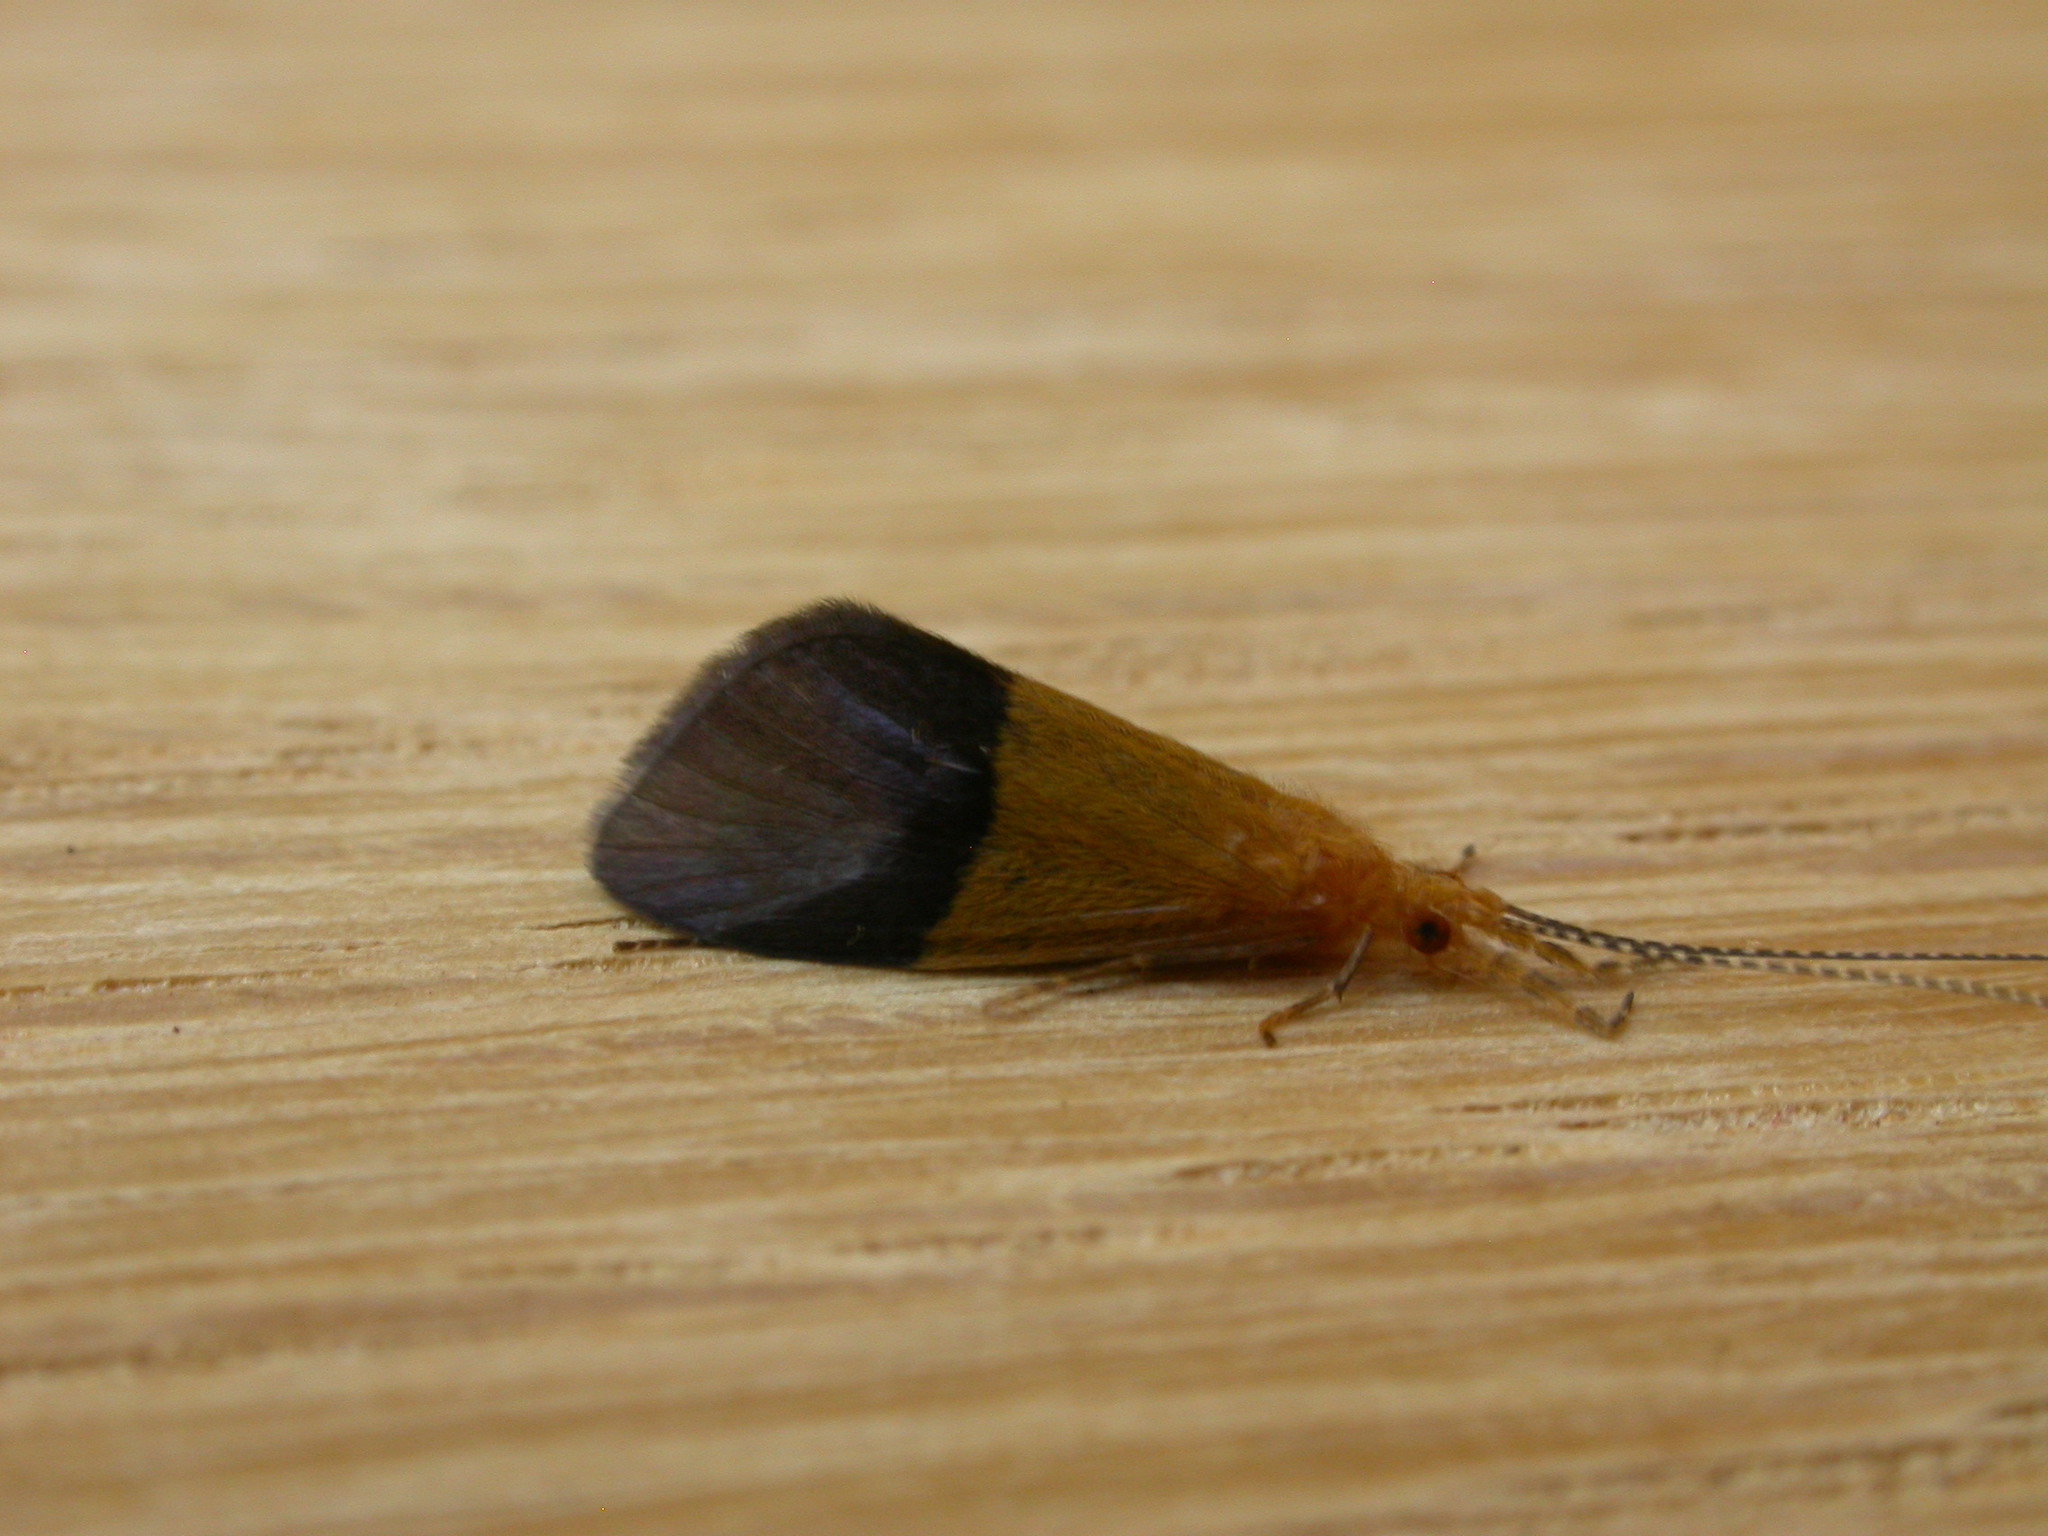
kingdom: Animalia
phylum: Arthropoda
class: Insecta
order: Trichoptera
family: Calamoceratidae
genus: Anisocentropus
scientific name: Anisocentropus bicoloratus
